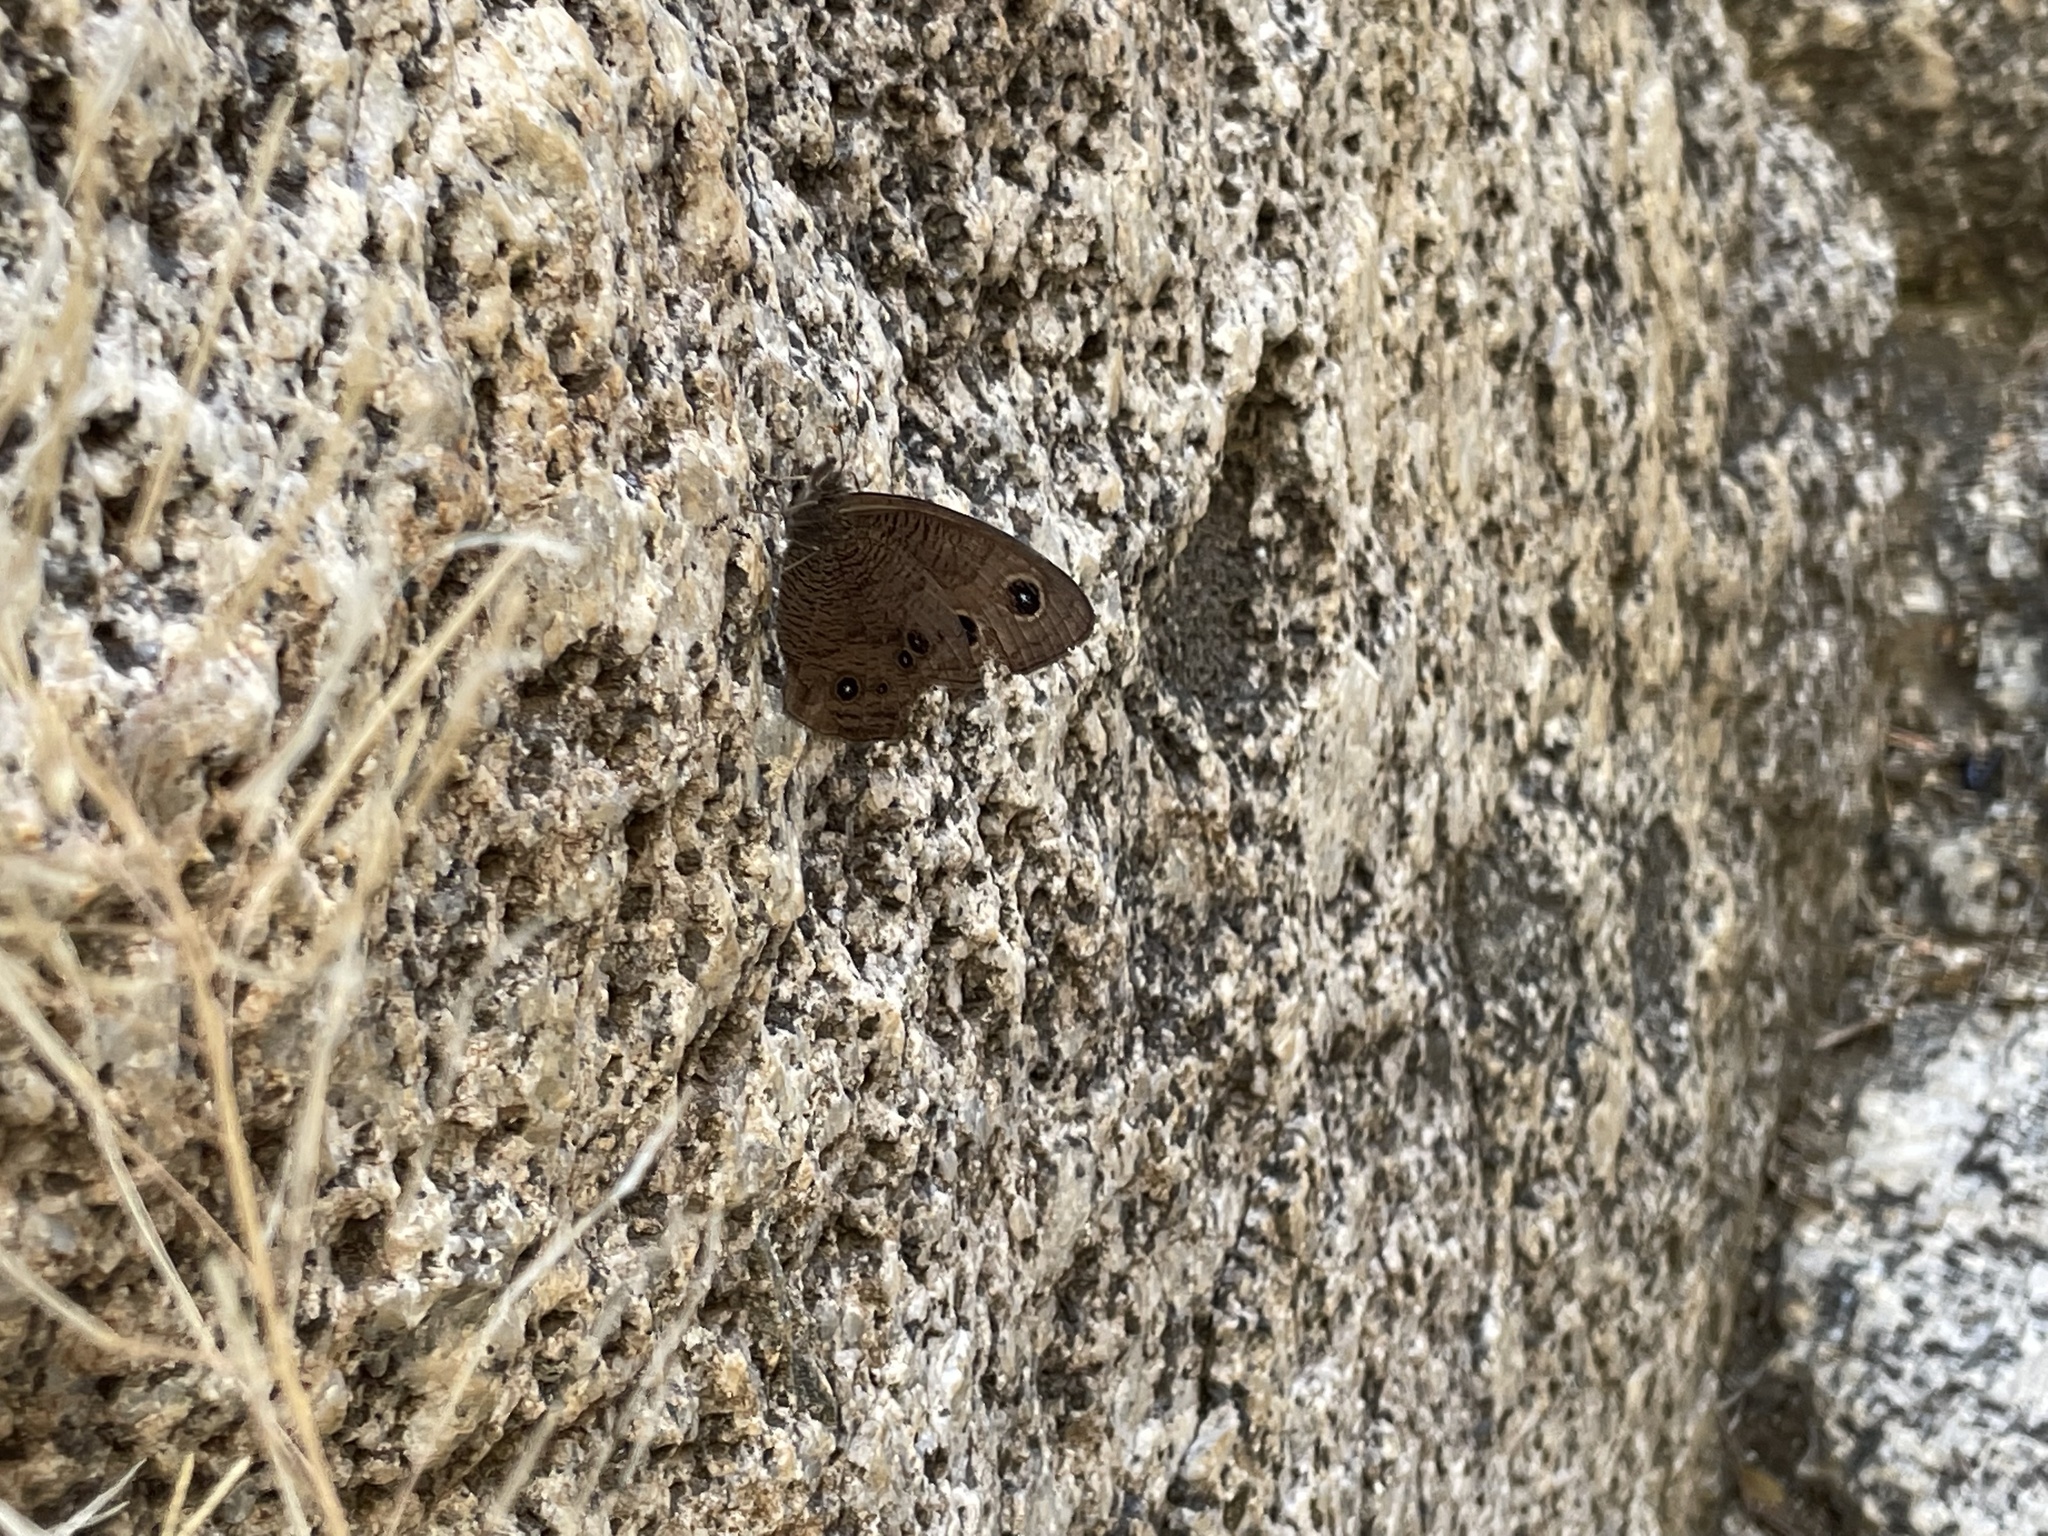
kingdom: Animalia
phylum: Arthropoda
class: Insecta
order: Lepidoptera
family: Nymphalidae
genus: Cercyonis
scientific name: Cercyonis pegala
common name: Common wood-nymph
